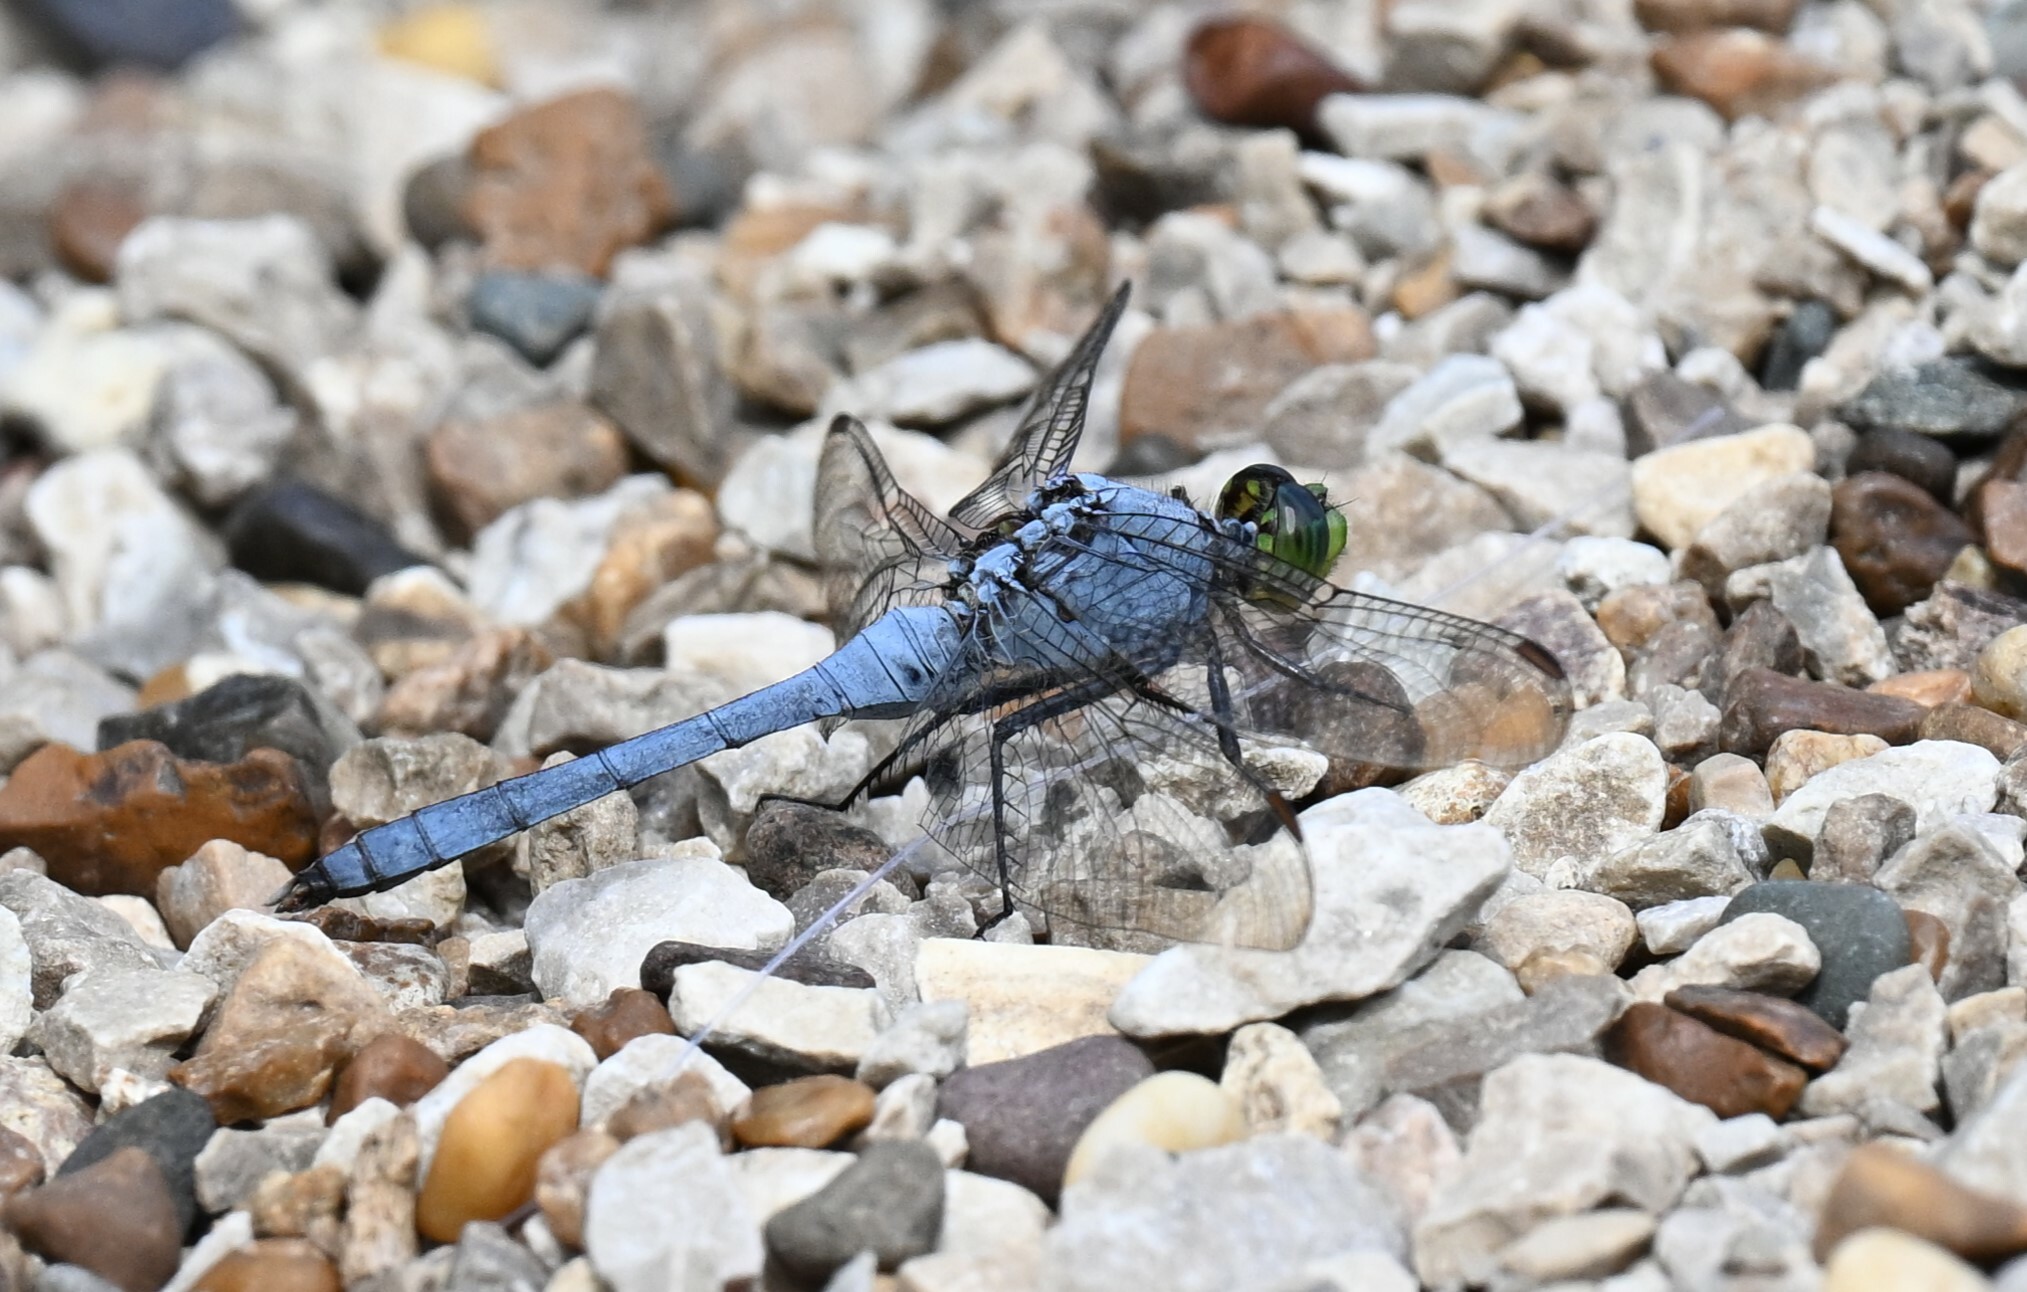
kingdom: Animalia
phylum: Arthropoda
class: Insecta
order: Odonata
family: Libellulidae
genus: Erythemis
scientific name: Erythemis simplicicollis
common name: Eastern pondhawk
